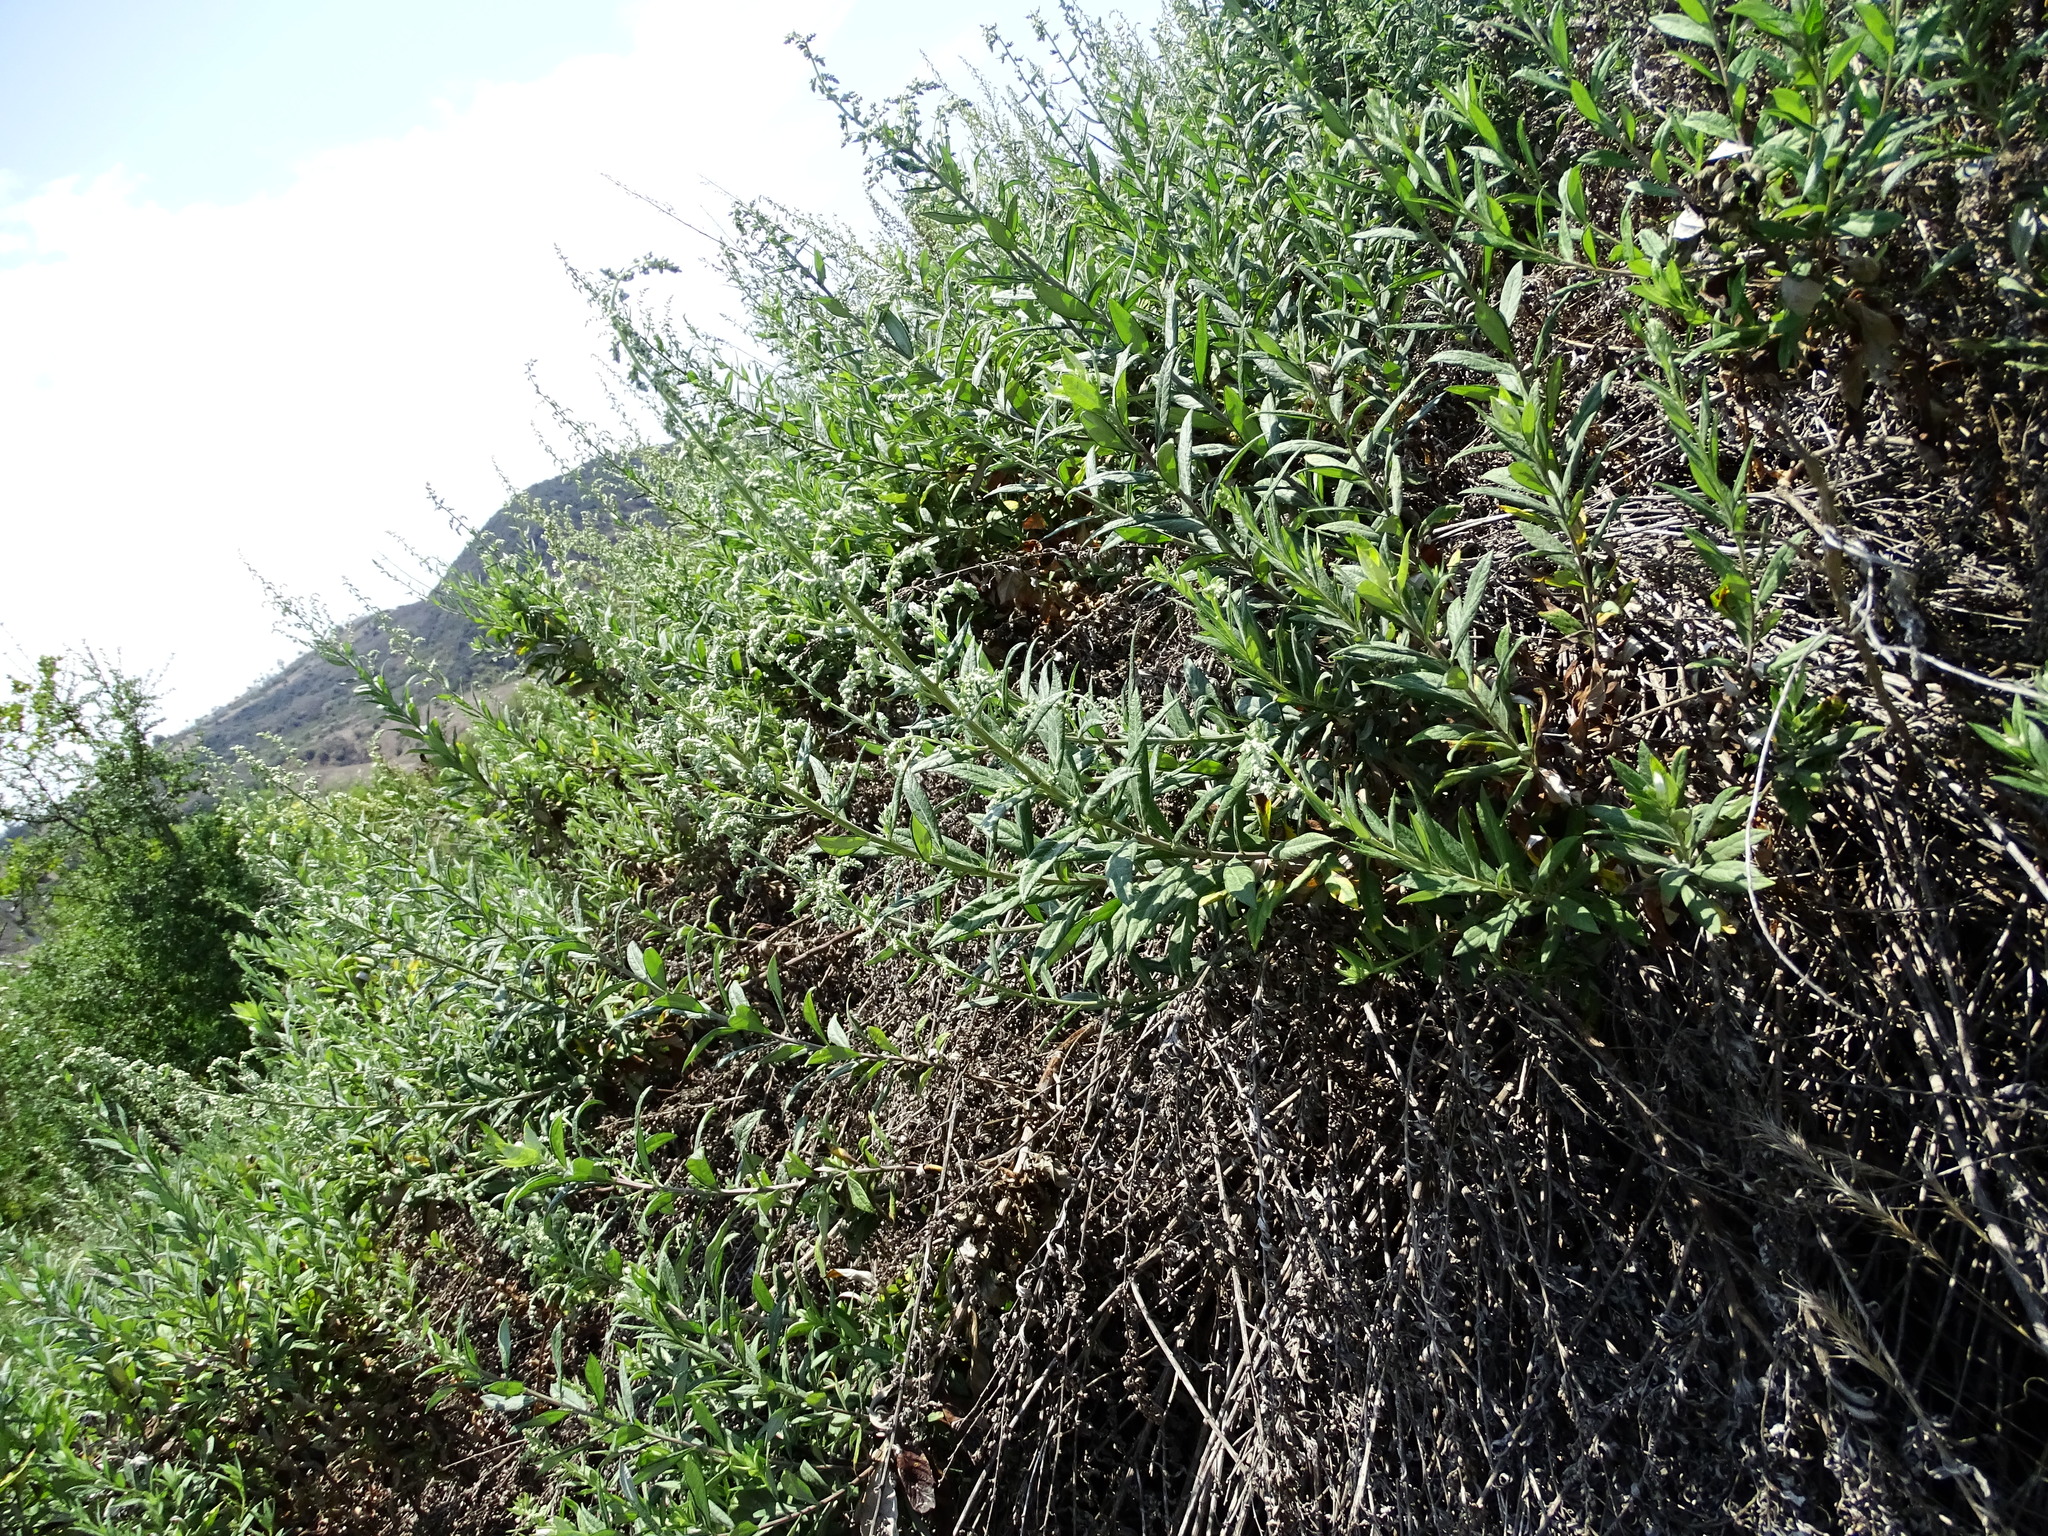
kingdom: Plantae
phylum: Tracheophyta
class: Magnoliopsida
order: Asterales
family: Asteraceae
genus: Artemisia
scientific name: Artemisia douglasiana
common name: Northwest mugwort
